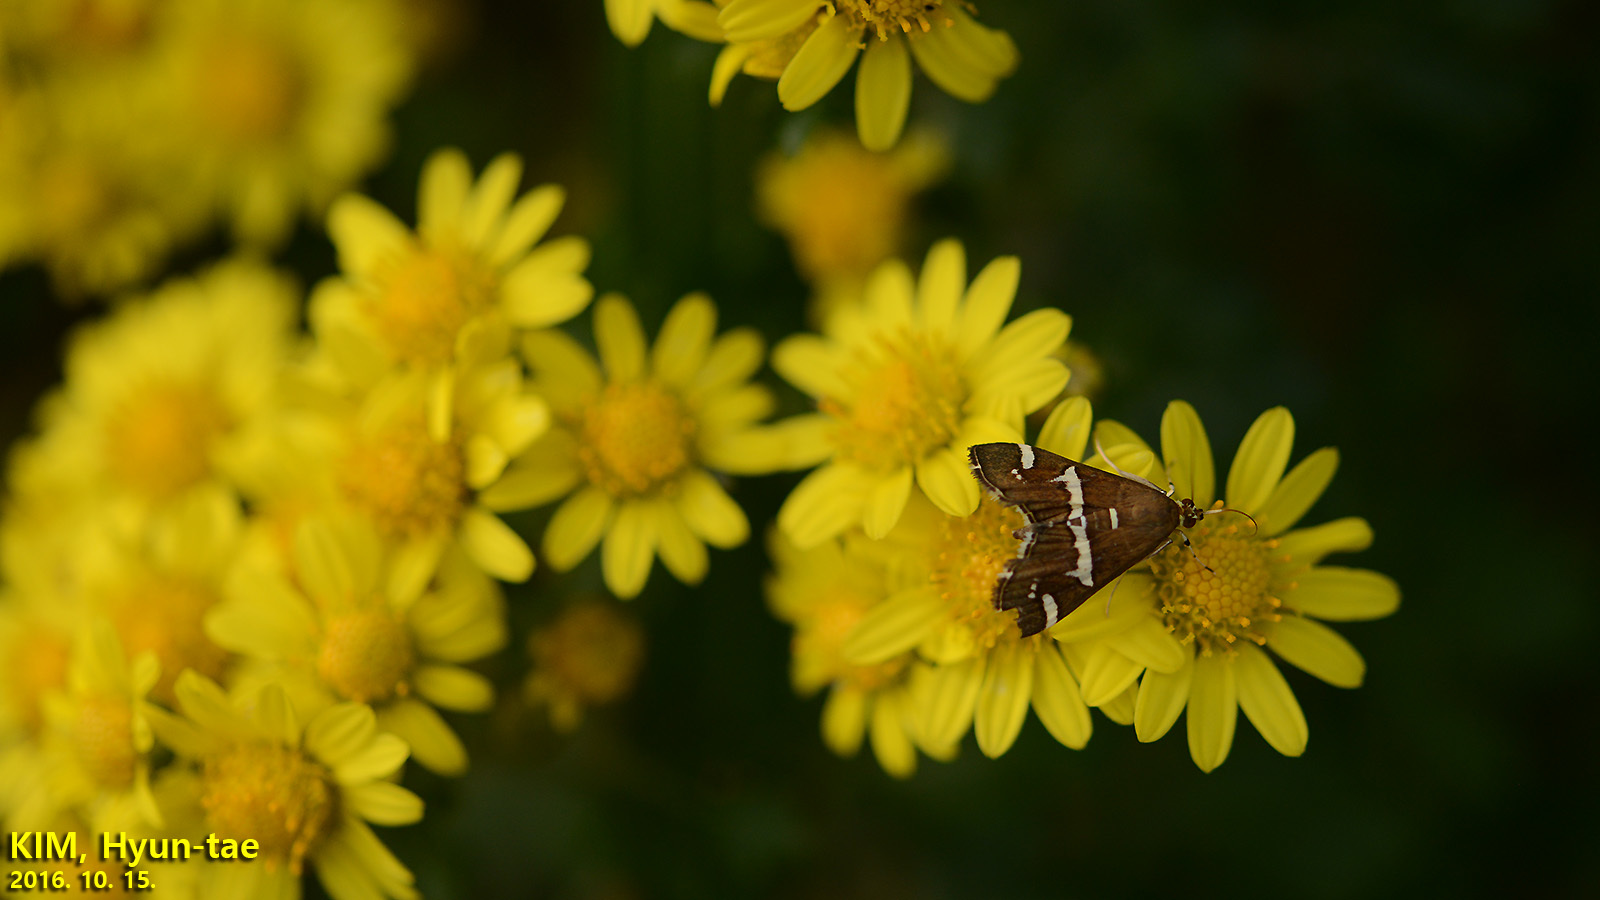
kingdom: Animalia
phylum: Arthropoda
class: Insecta
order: Lepidoptera
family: Crambidae
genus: Spoladea
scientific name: Spoladea recurvalis
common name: Beet webworm moth
